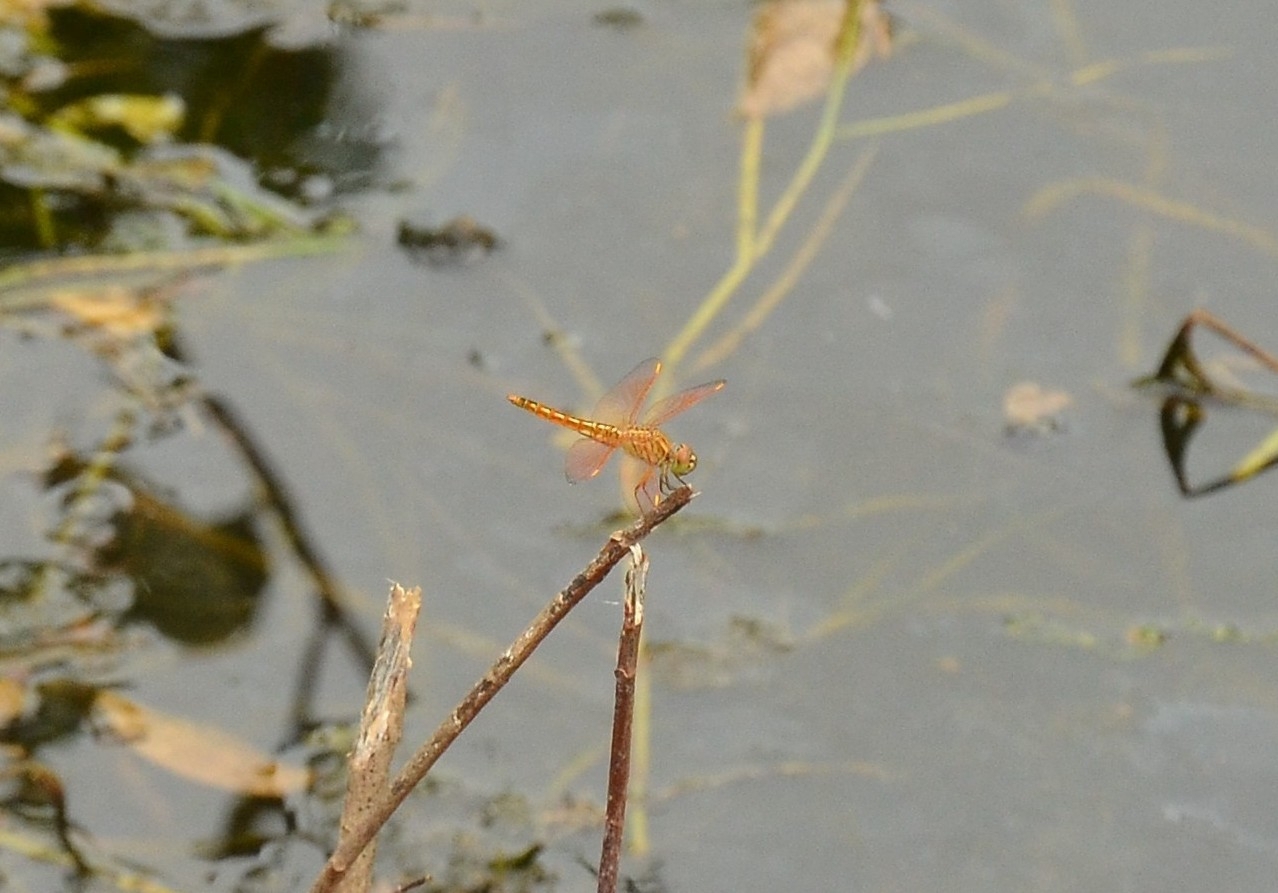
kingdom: Animalia
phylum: Arthropoda
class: Insecta
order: Odonata
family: Libellulidae
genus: Brachythemis
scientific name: Brachythemis contaminata
